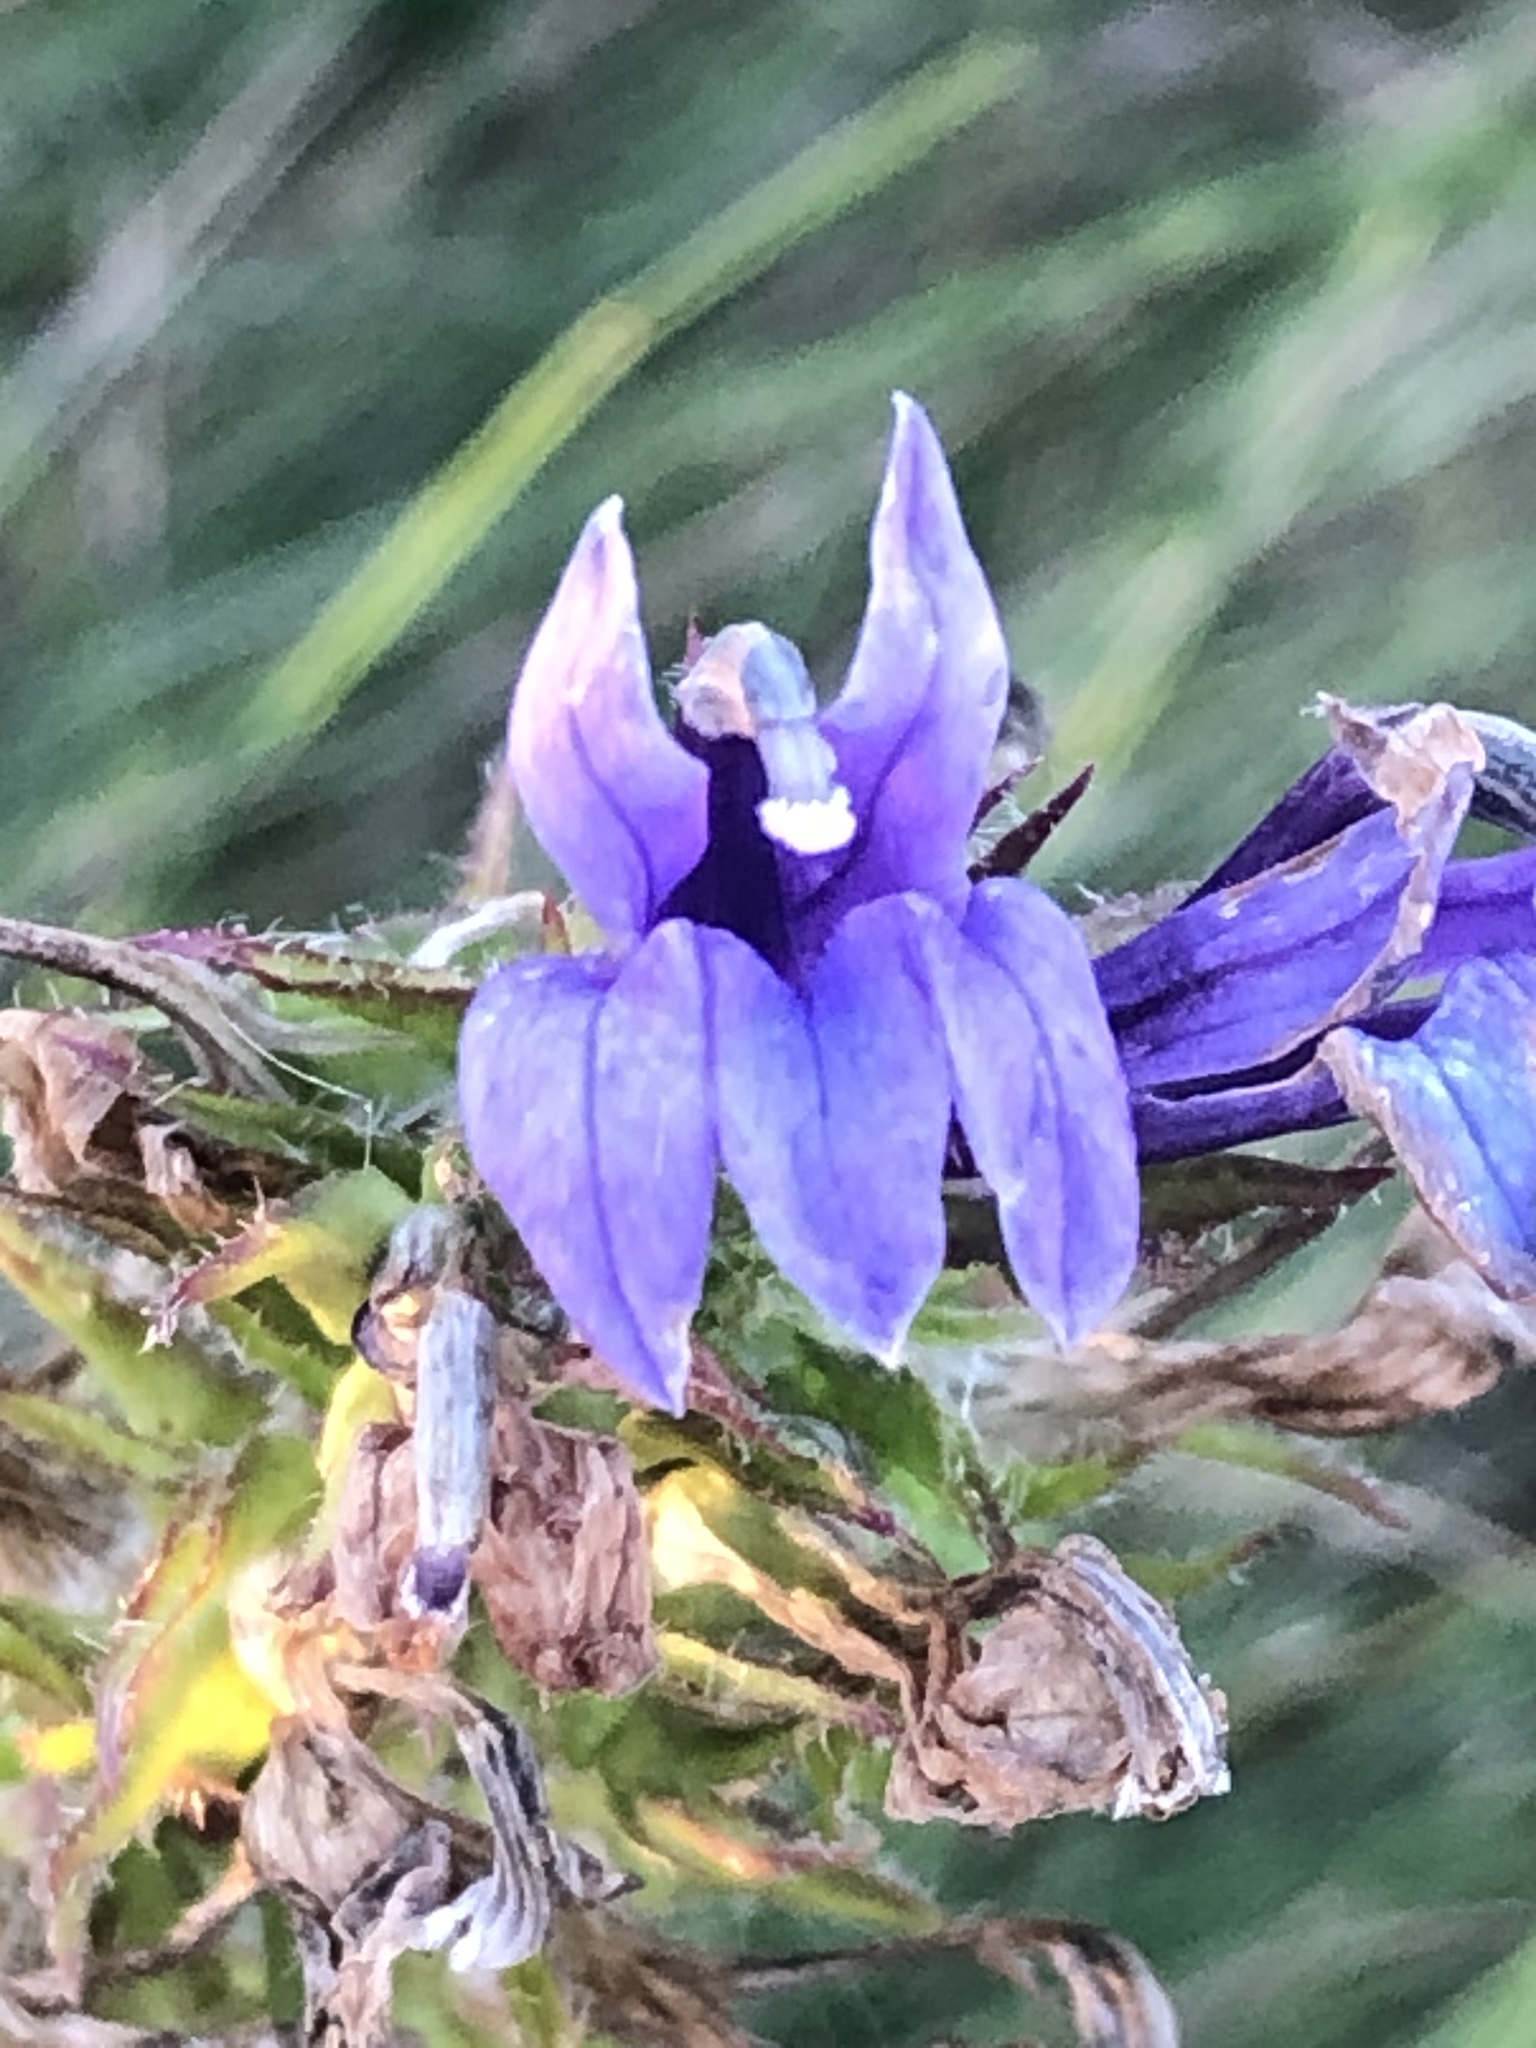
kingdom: Plantae
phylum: Tracheophyta
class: Magnoliopsida
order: Asterales
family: Campanulaceae
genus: Lobelia
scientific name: Lobelia siphilitica
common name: Great lobelia
